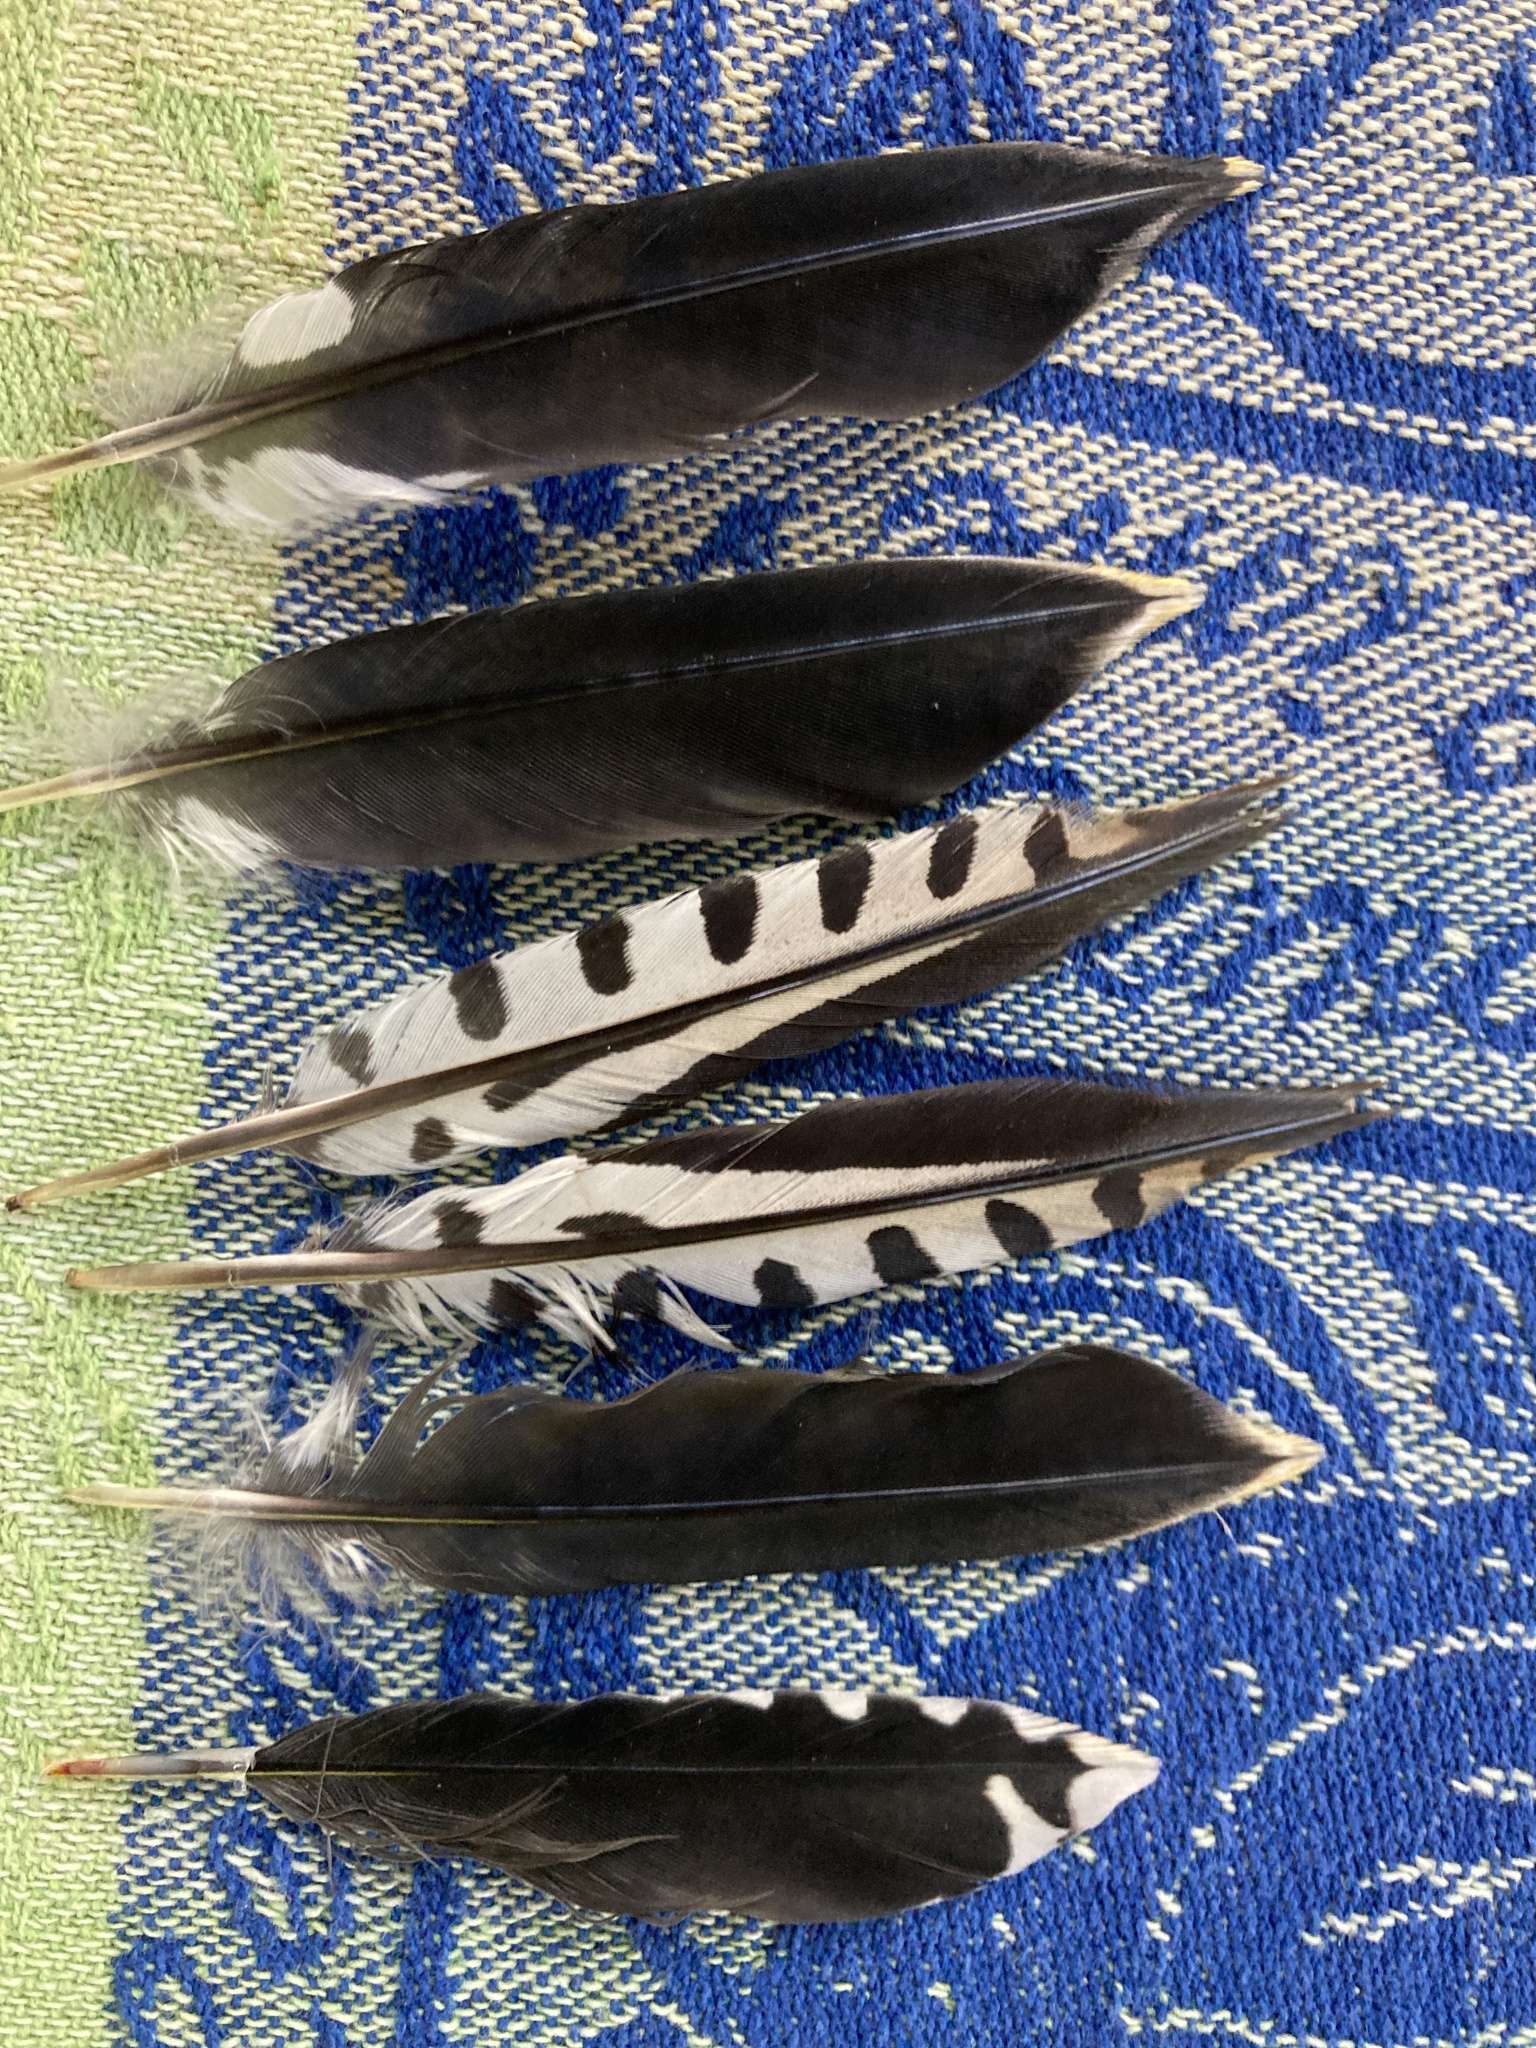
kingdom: Animalia
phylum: Chordata
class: Aves
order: Piciformes
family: Picidae
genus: Melanerpes
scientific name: Melanerpes carolinus
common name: Red-bellied woodpecker
